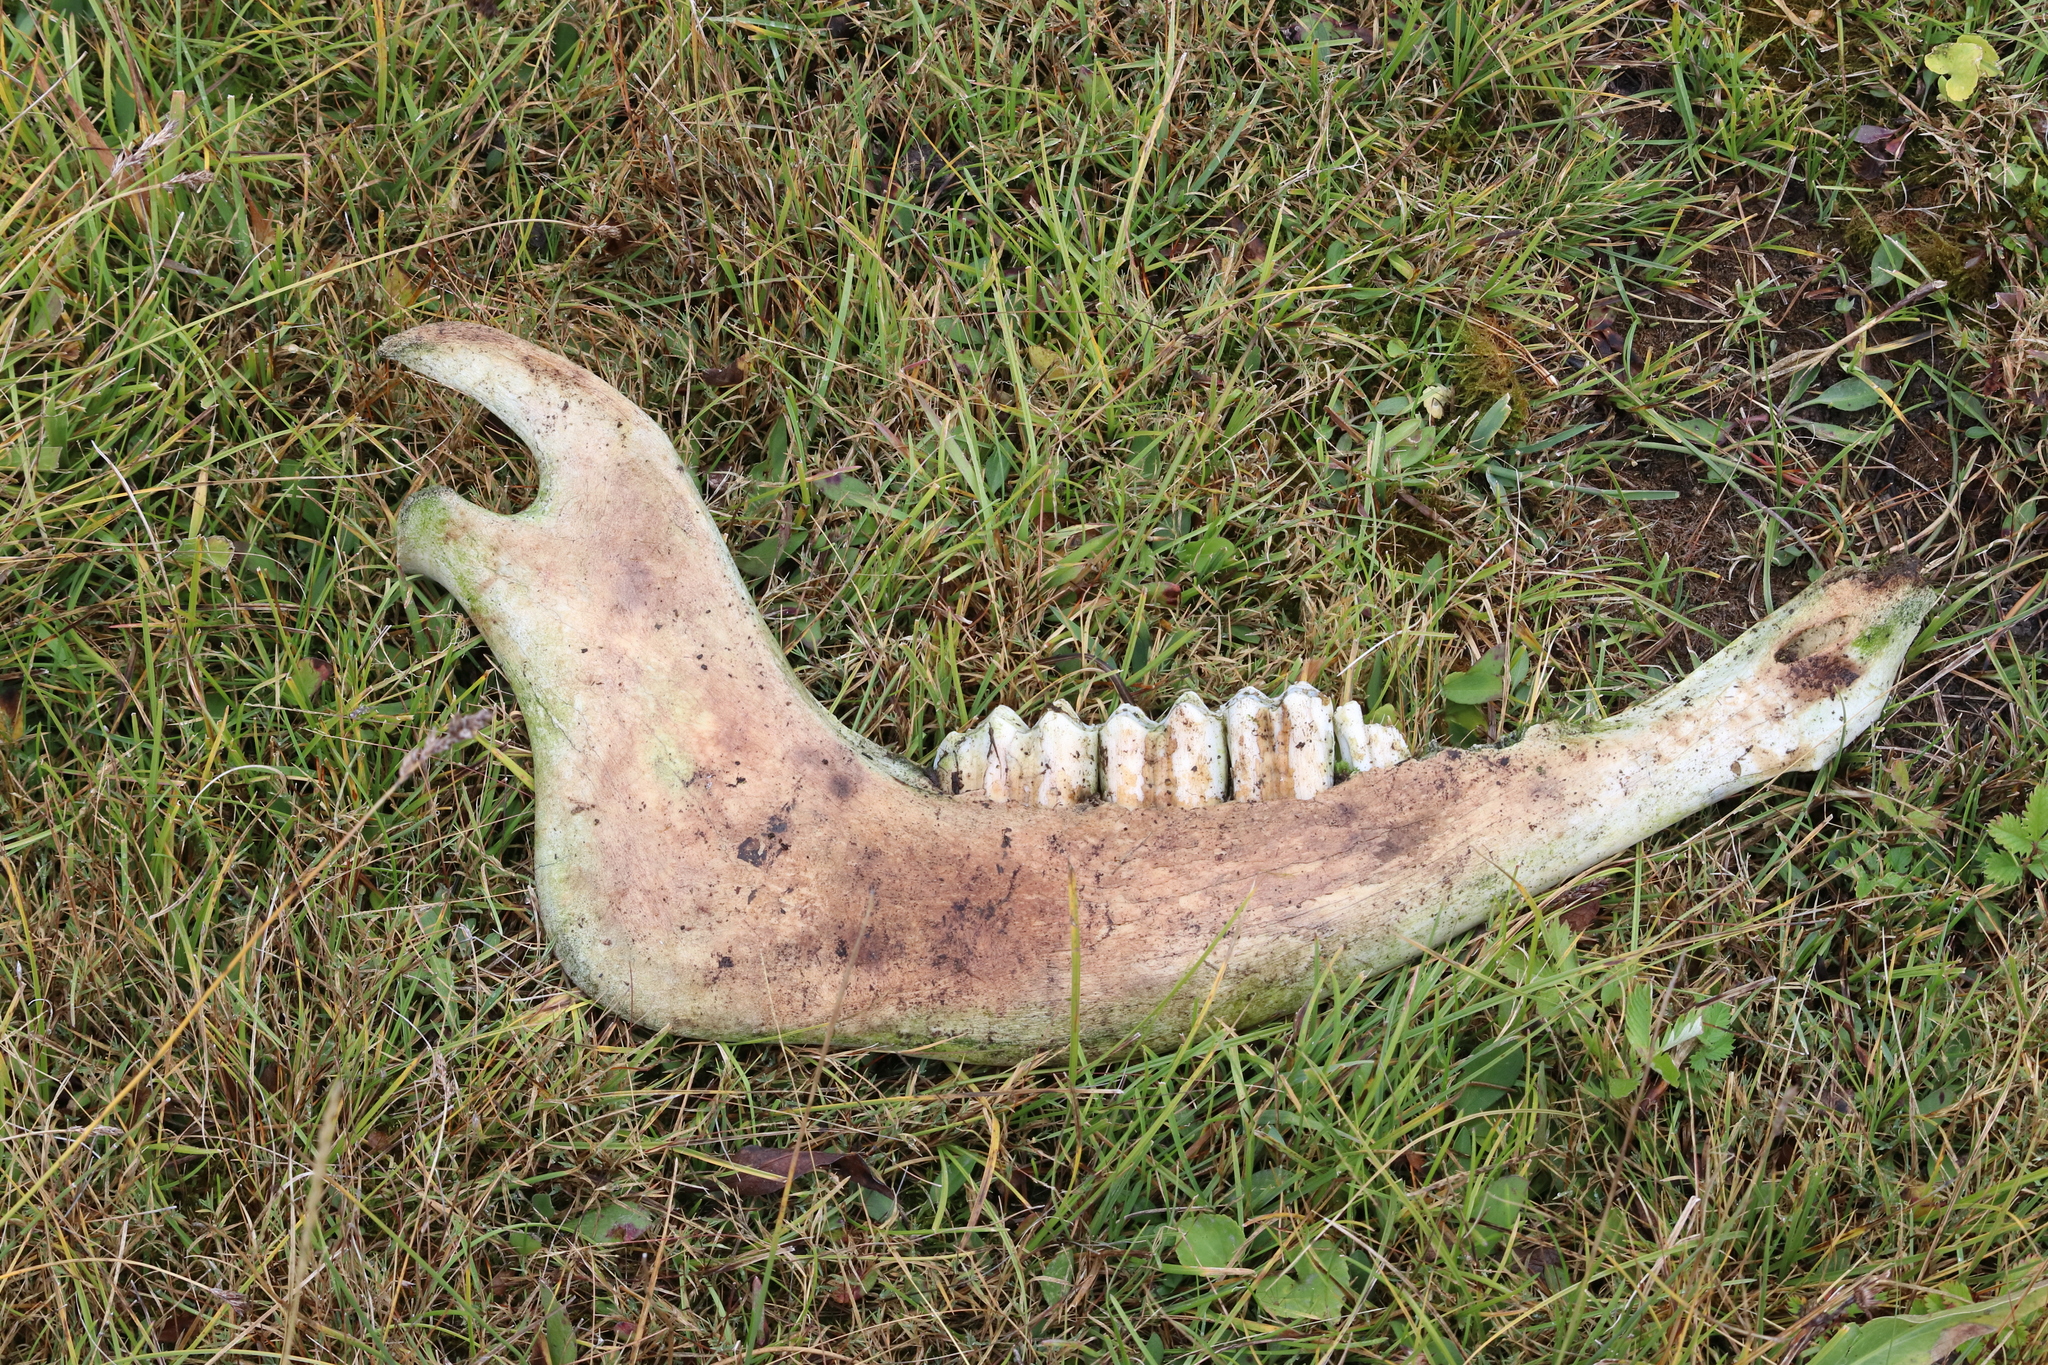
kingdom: Animalia
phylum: Chordata
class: Mammalia
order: Artiodactyla
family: Cervidae
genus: Cervus
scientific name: Cervus elaphus
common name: Red deer
